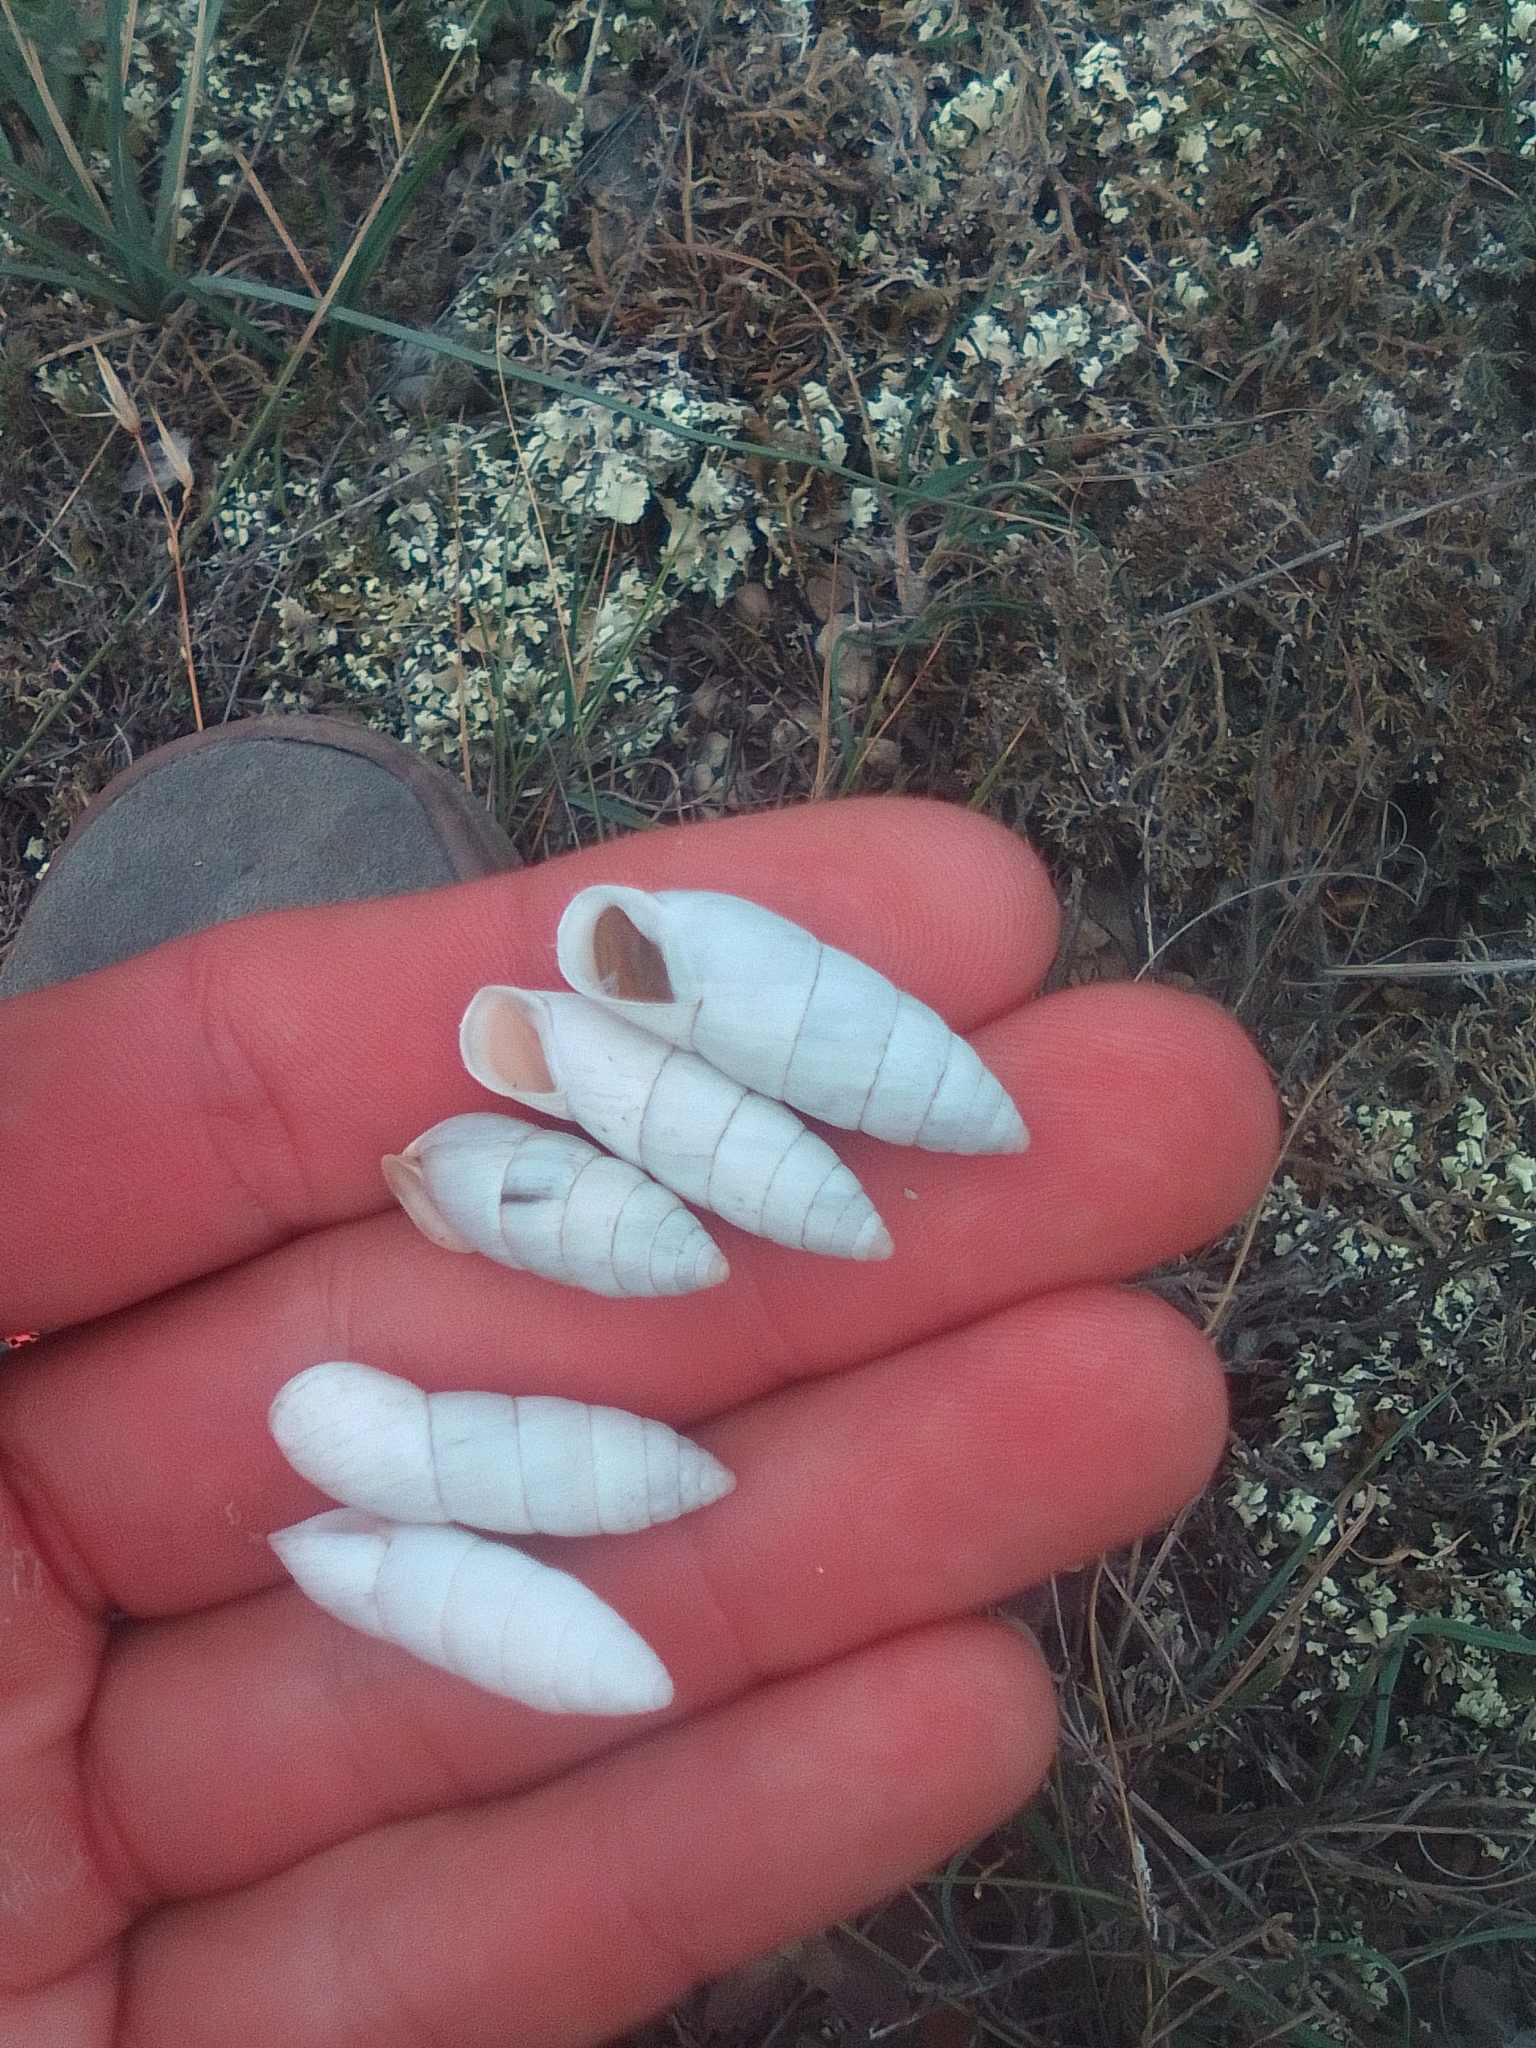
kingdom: Animalia
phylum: Mollusca
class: Gastropoda
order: Stylommatophora
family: Enidae
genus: Brephulopsis
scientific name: Brephulopsis cylindrica
